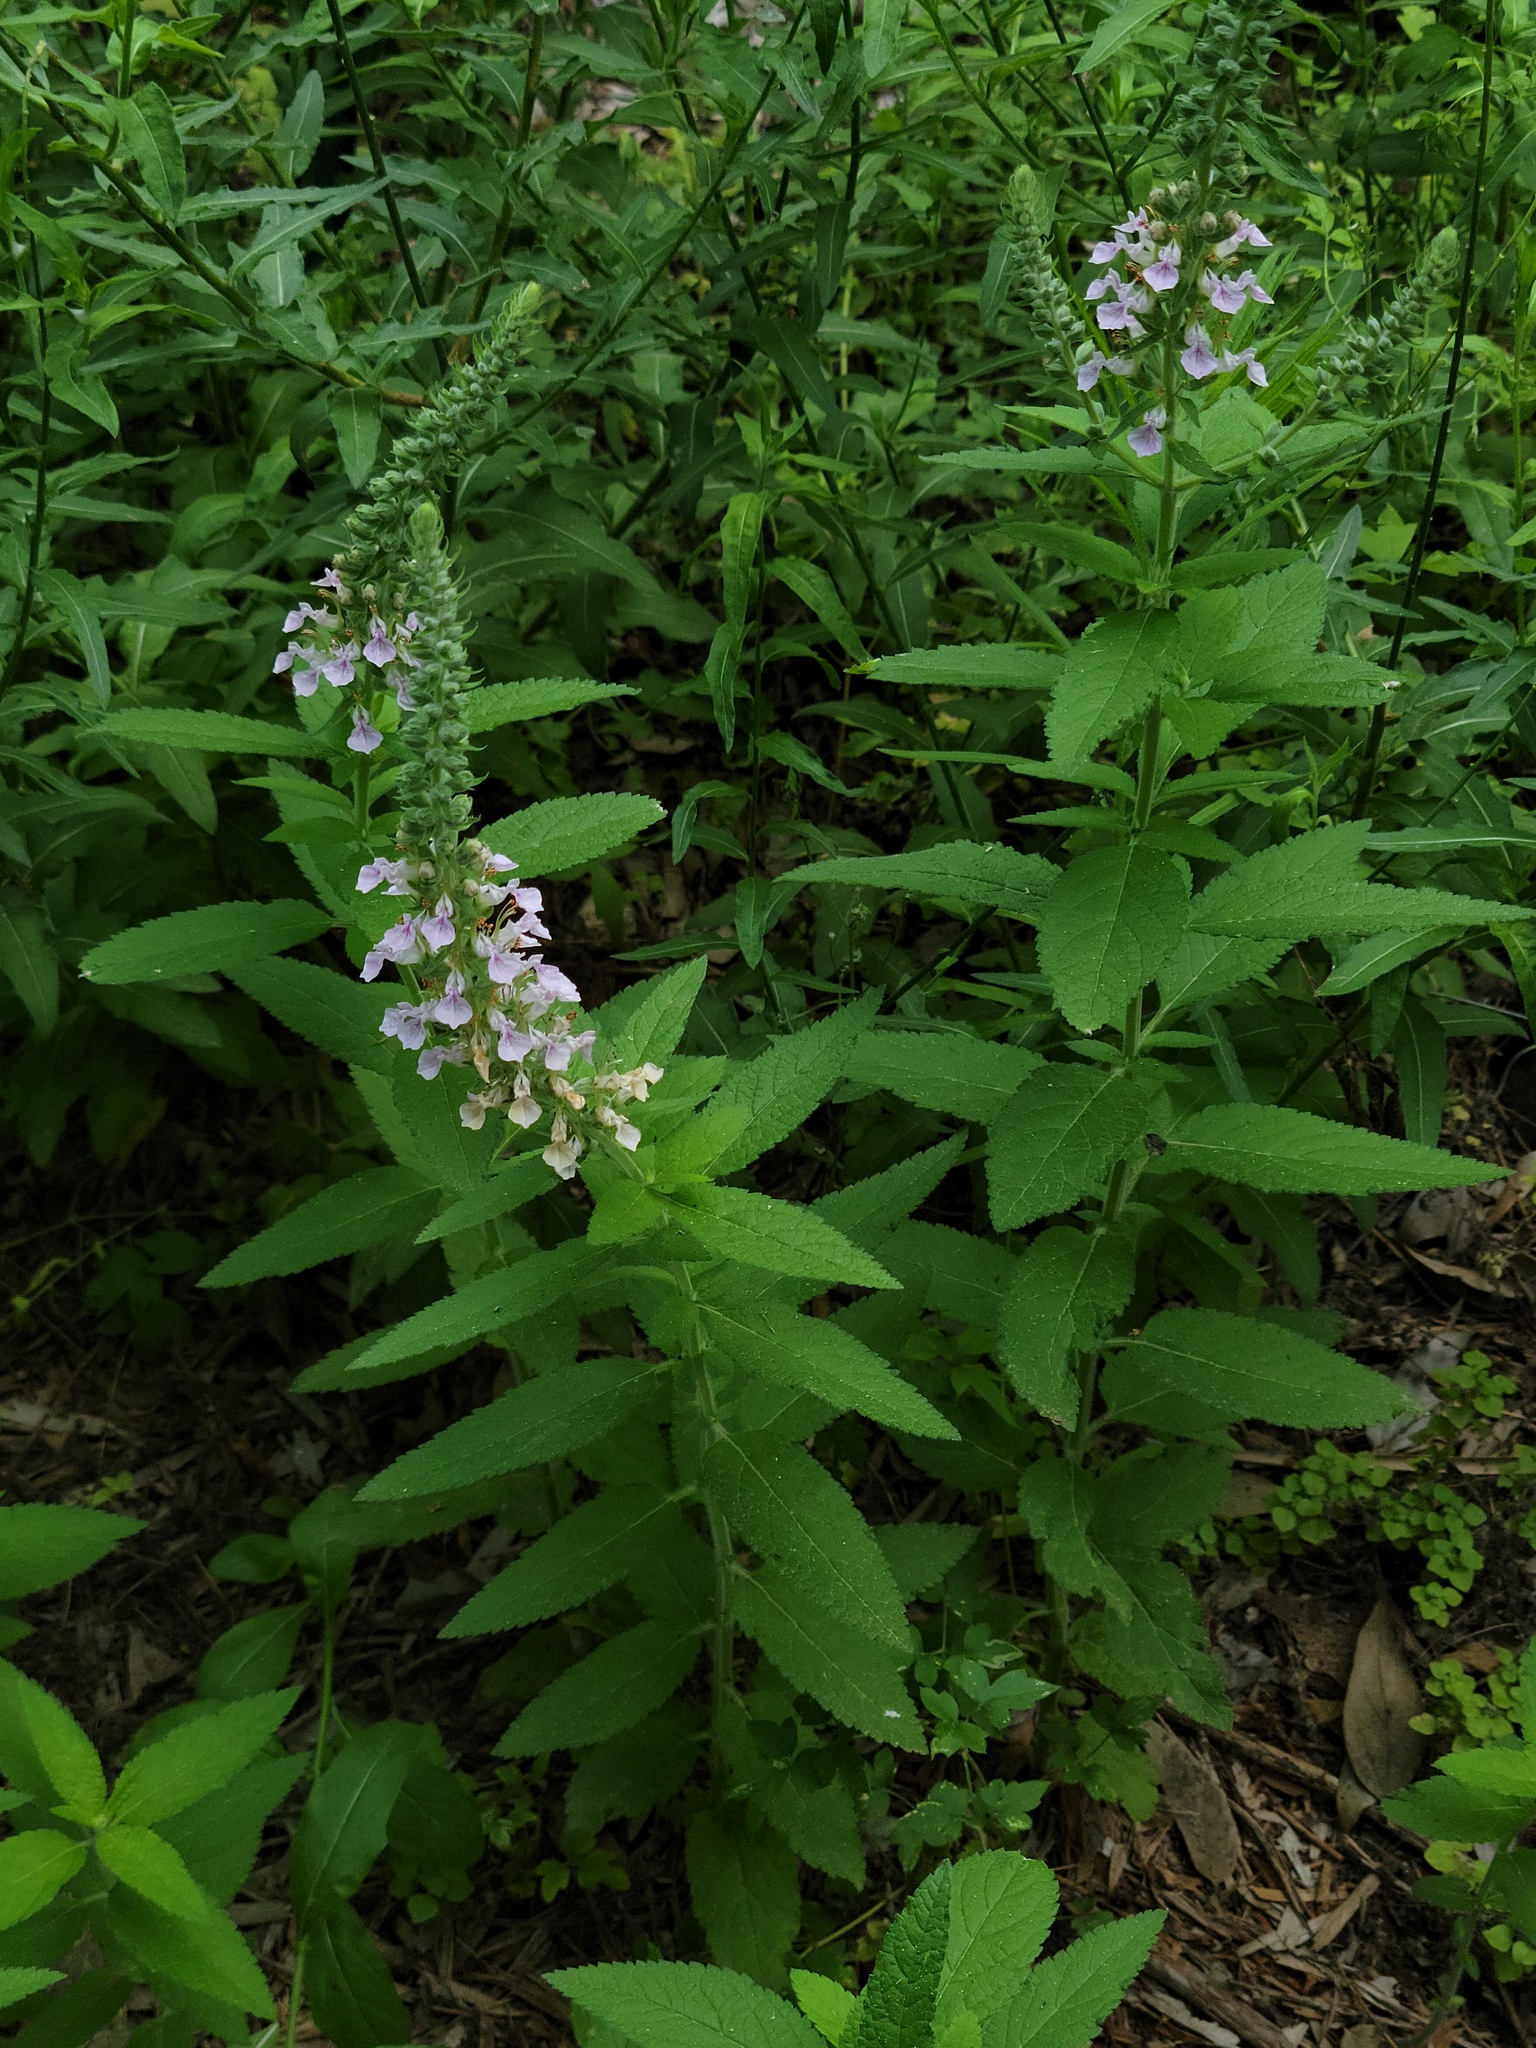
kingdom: Plantae
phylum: Tracheophyta
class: Magnoliopsida
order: Lamiales
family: Lamiaceae
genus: Teucrium
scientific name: Teucrium canadense
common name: American germander
